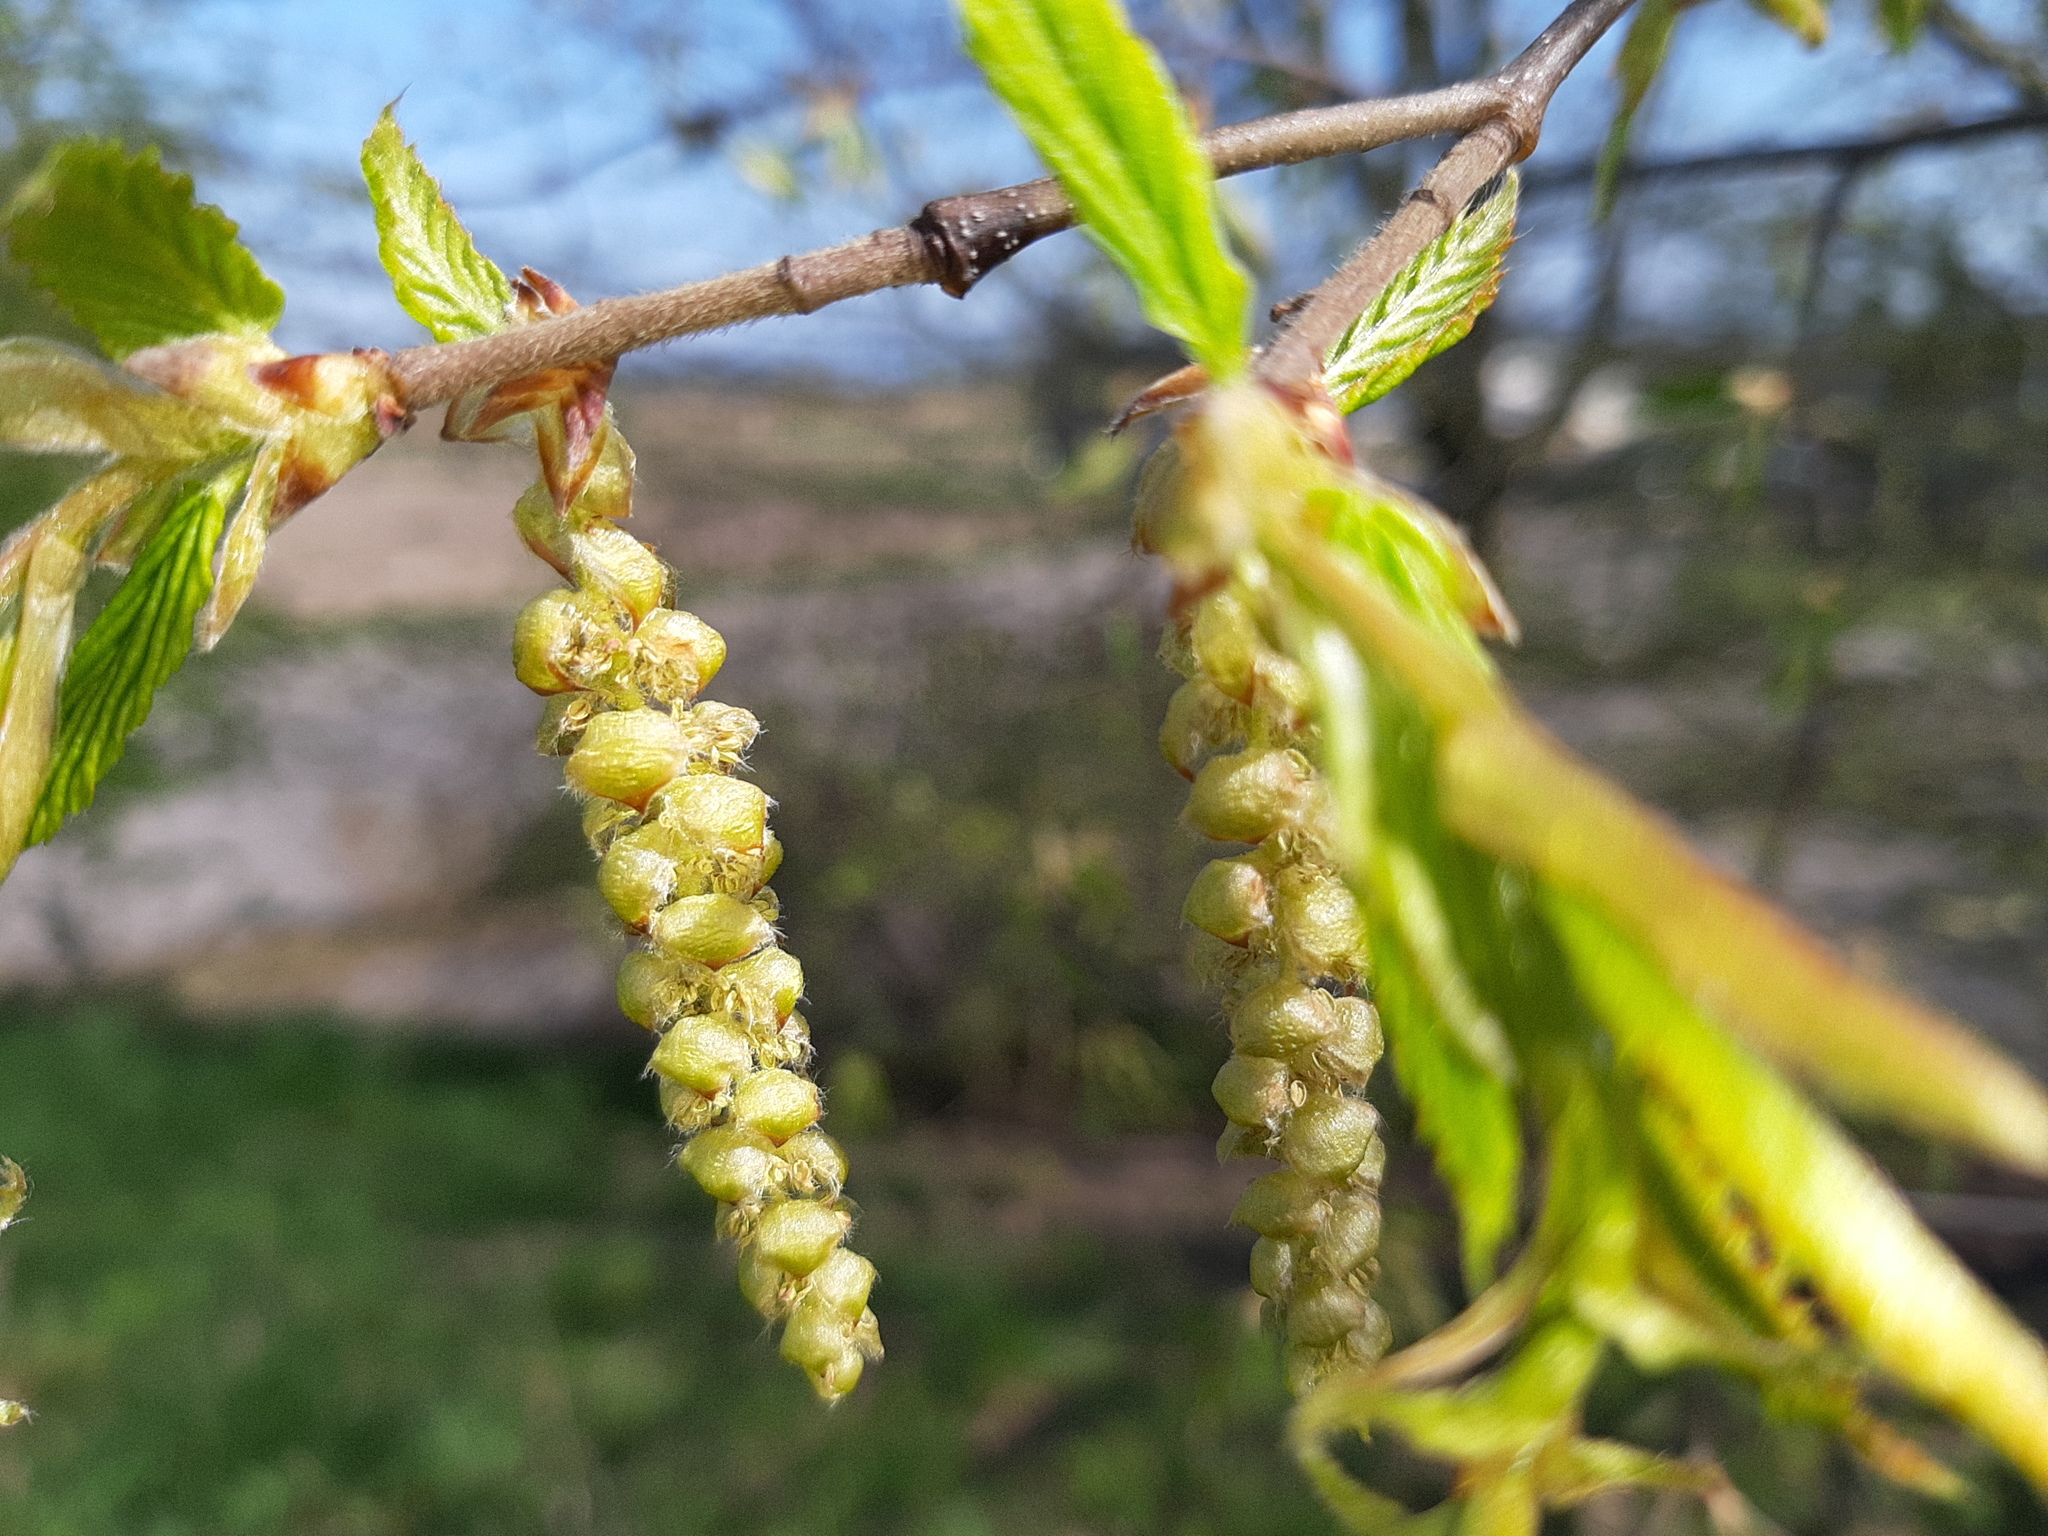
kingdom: Plantae
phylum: Tracheophyta
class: Magnoliopsida
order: Fagales
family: Betulaceae
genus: Carpinus
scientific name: Carpinus betulus
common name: Hornbeam
